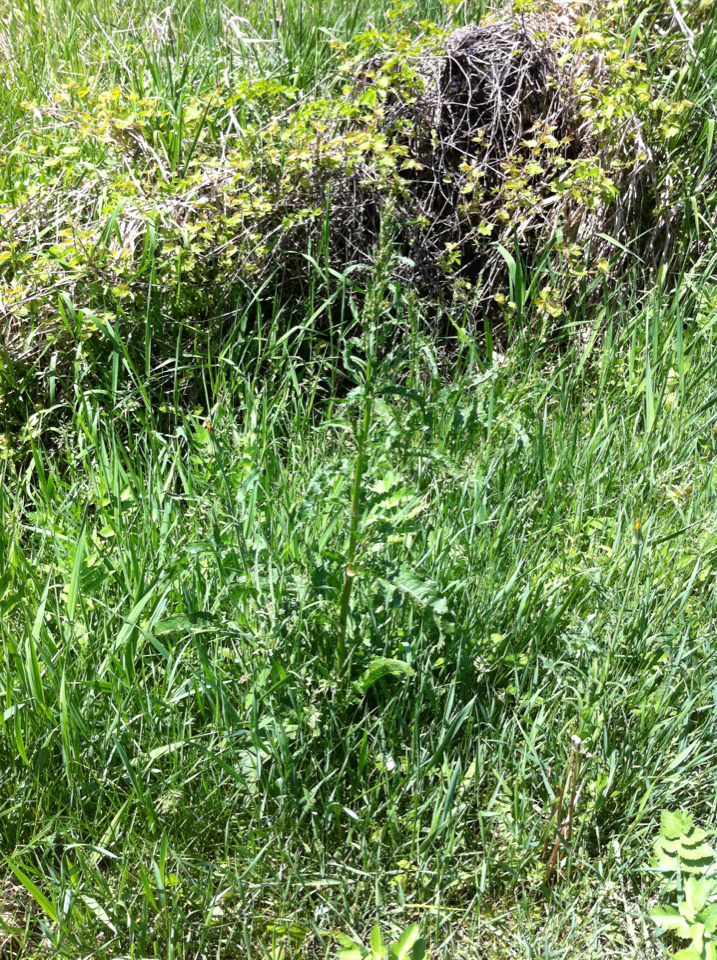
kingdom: Plantae
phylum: Tracheophyta
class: Magnoliopsida
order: Caryophyllales
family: Polygonaceae
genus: Rumex
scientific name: Rumex crispus
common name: Curled dock
